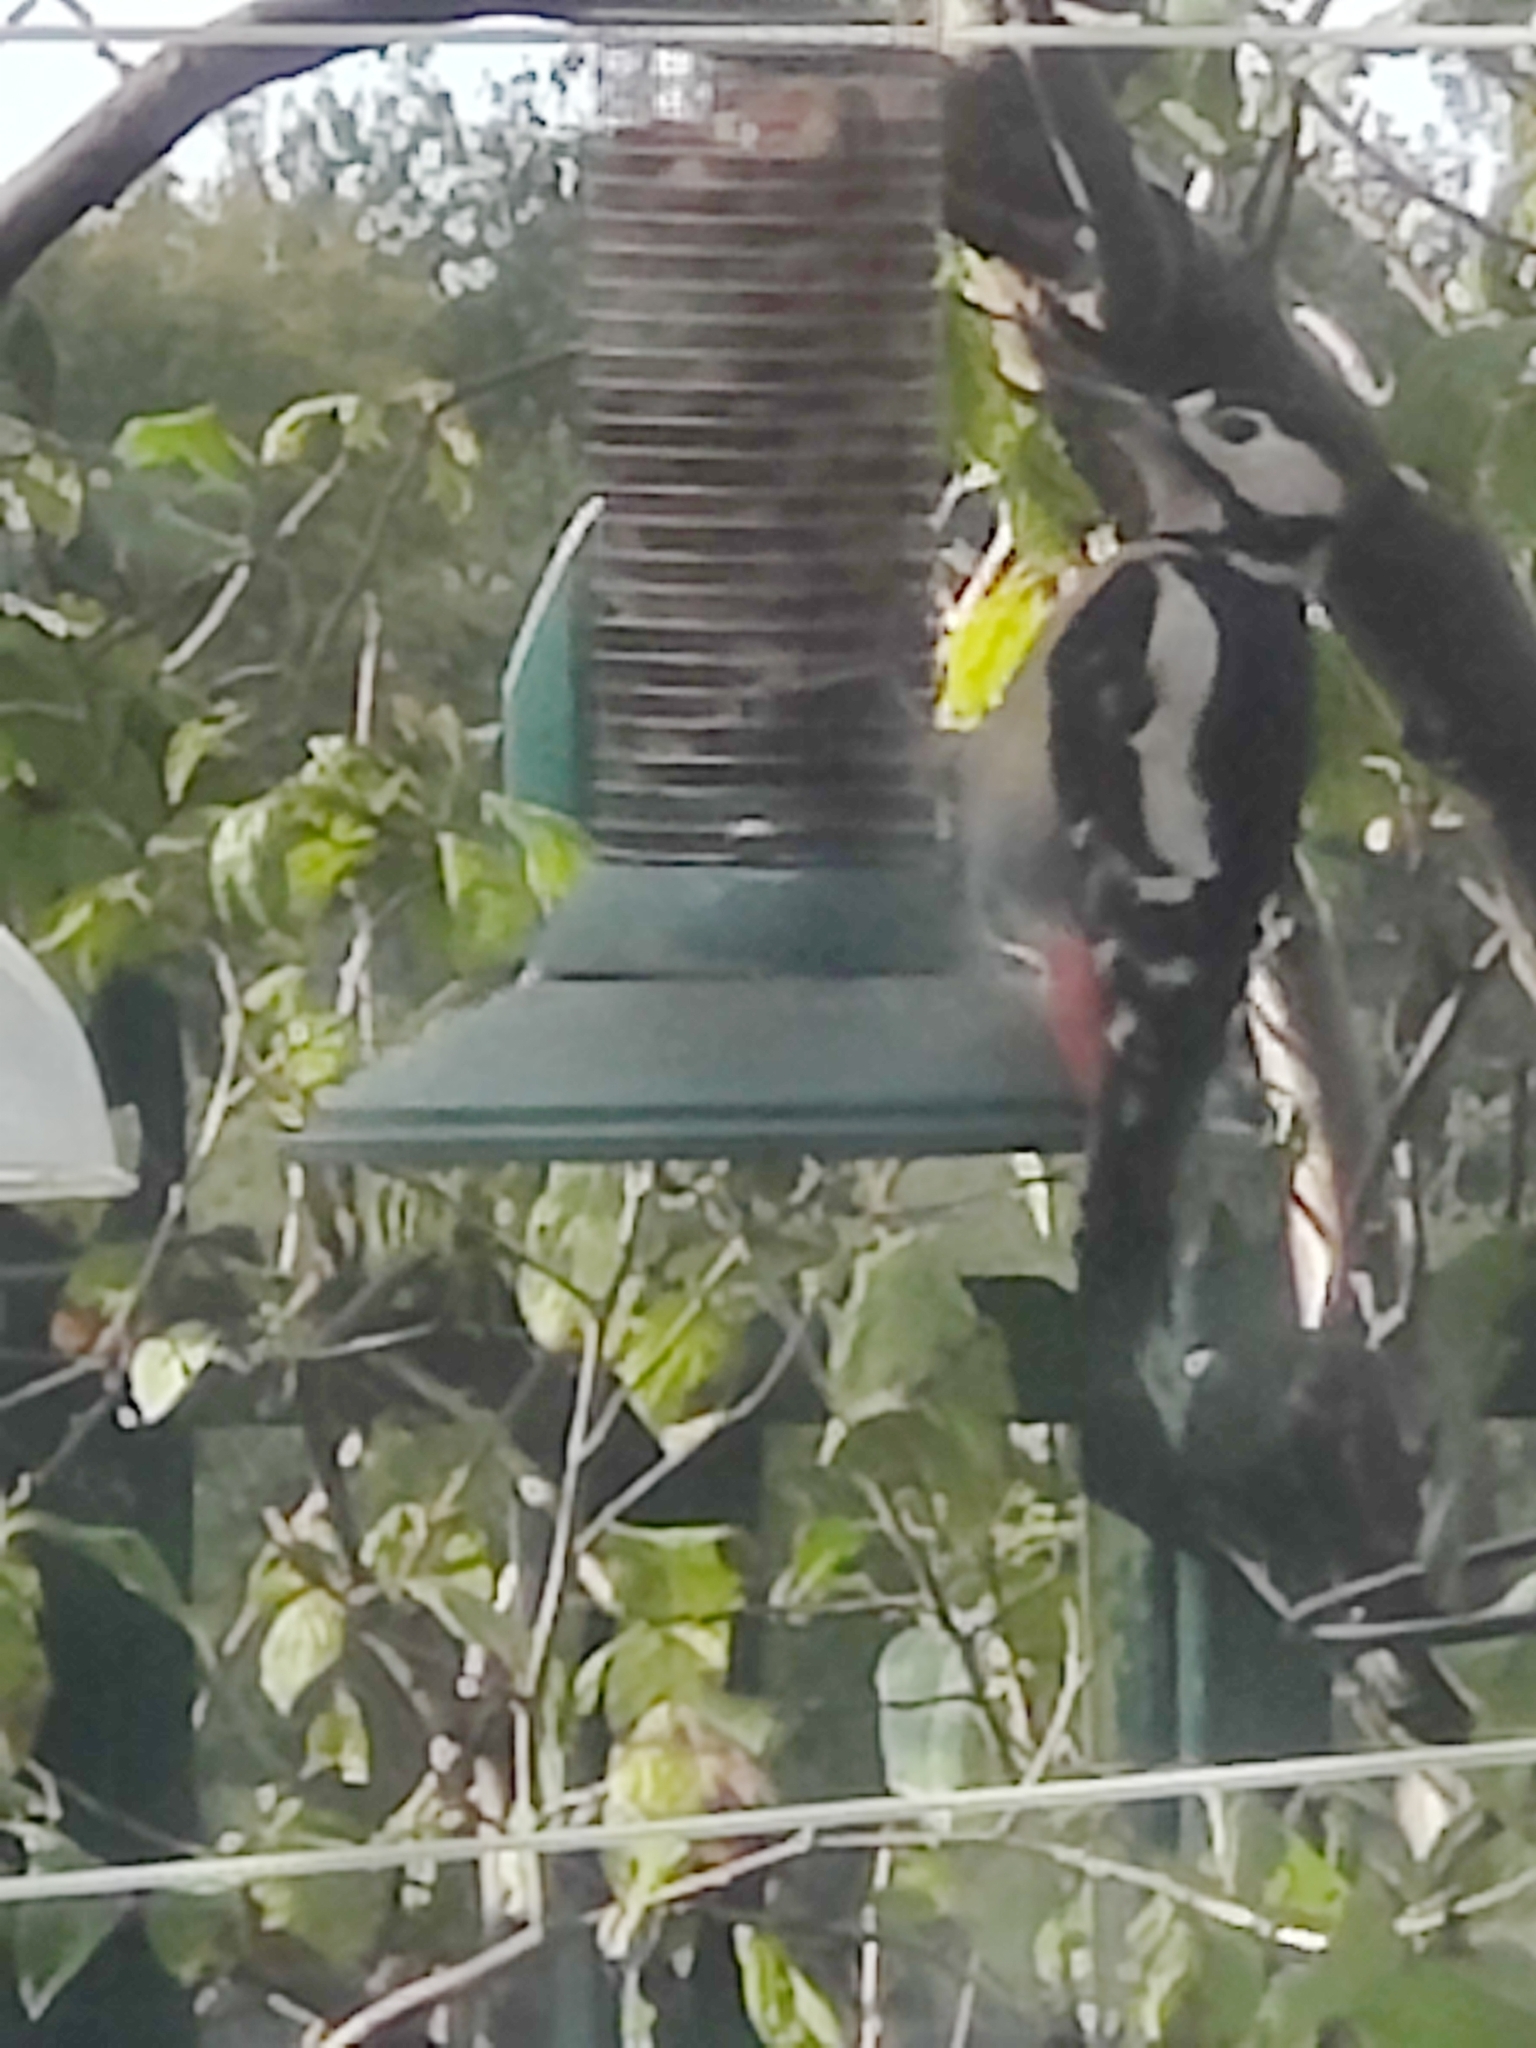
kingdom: Animalia
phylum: Chordata
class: Aves
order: Piciformes
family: Picidae
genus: Dendrocopos
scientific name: Dendrocopos major
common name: Great spotted woodpecker
